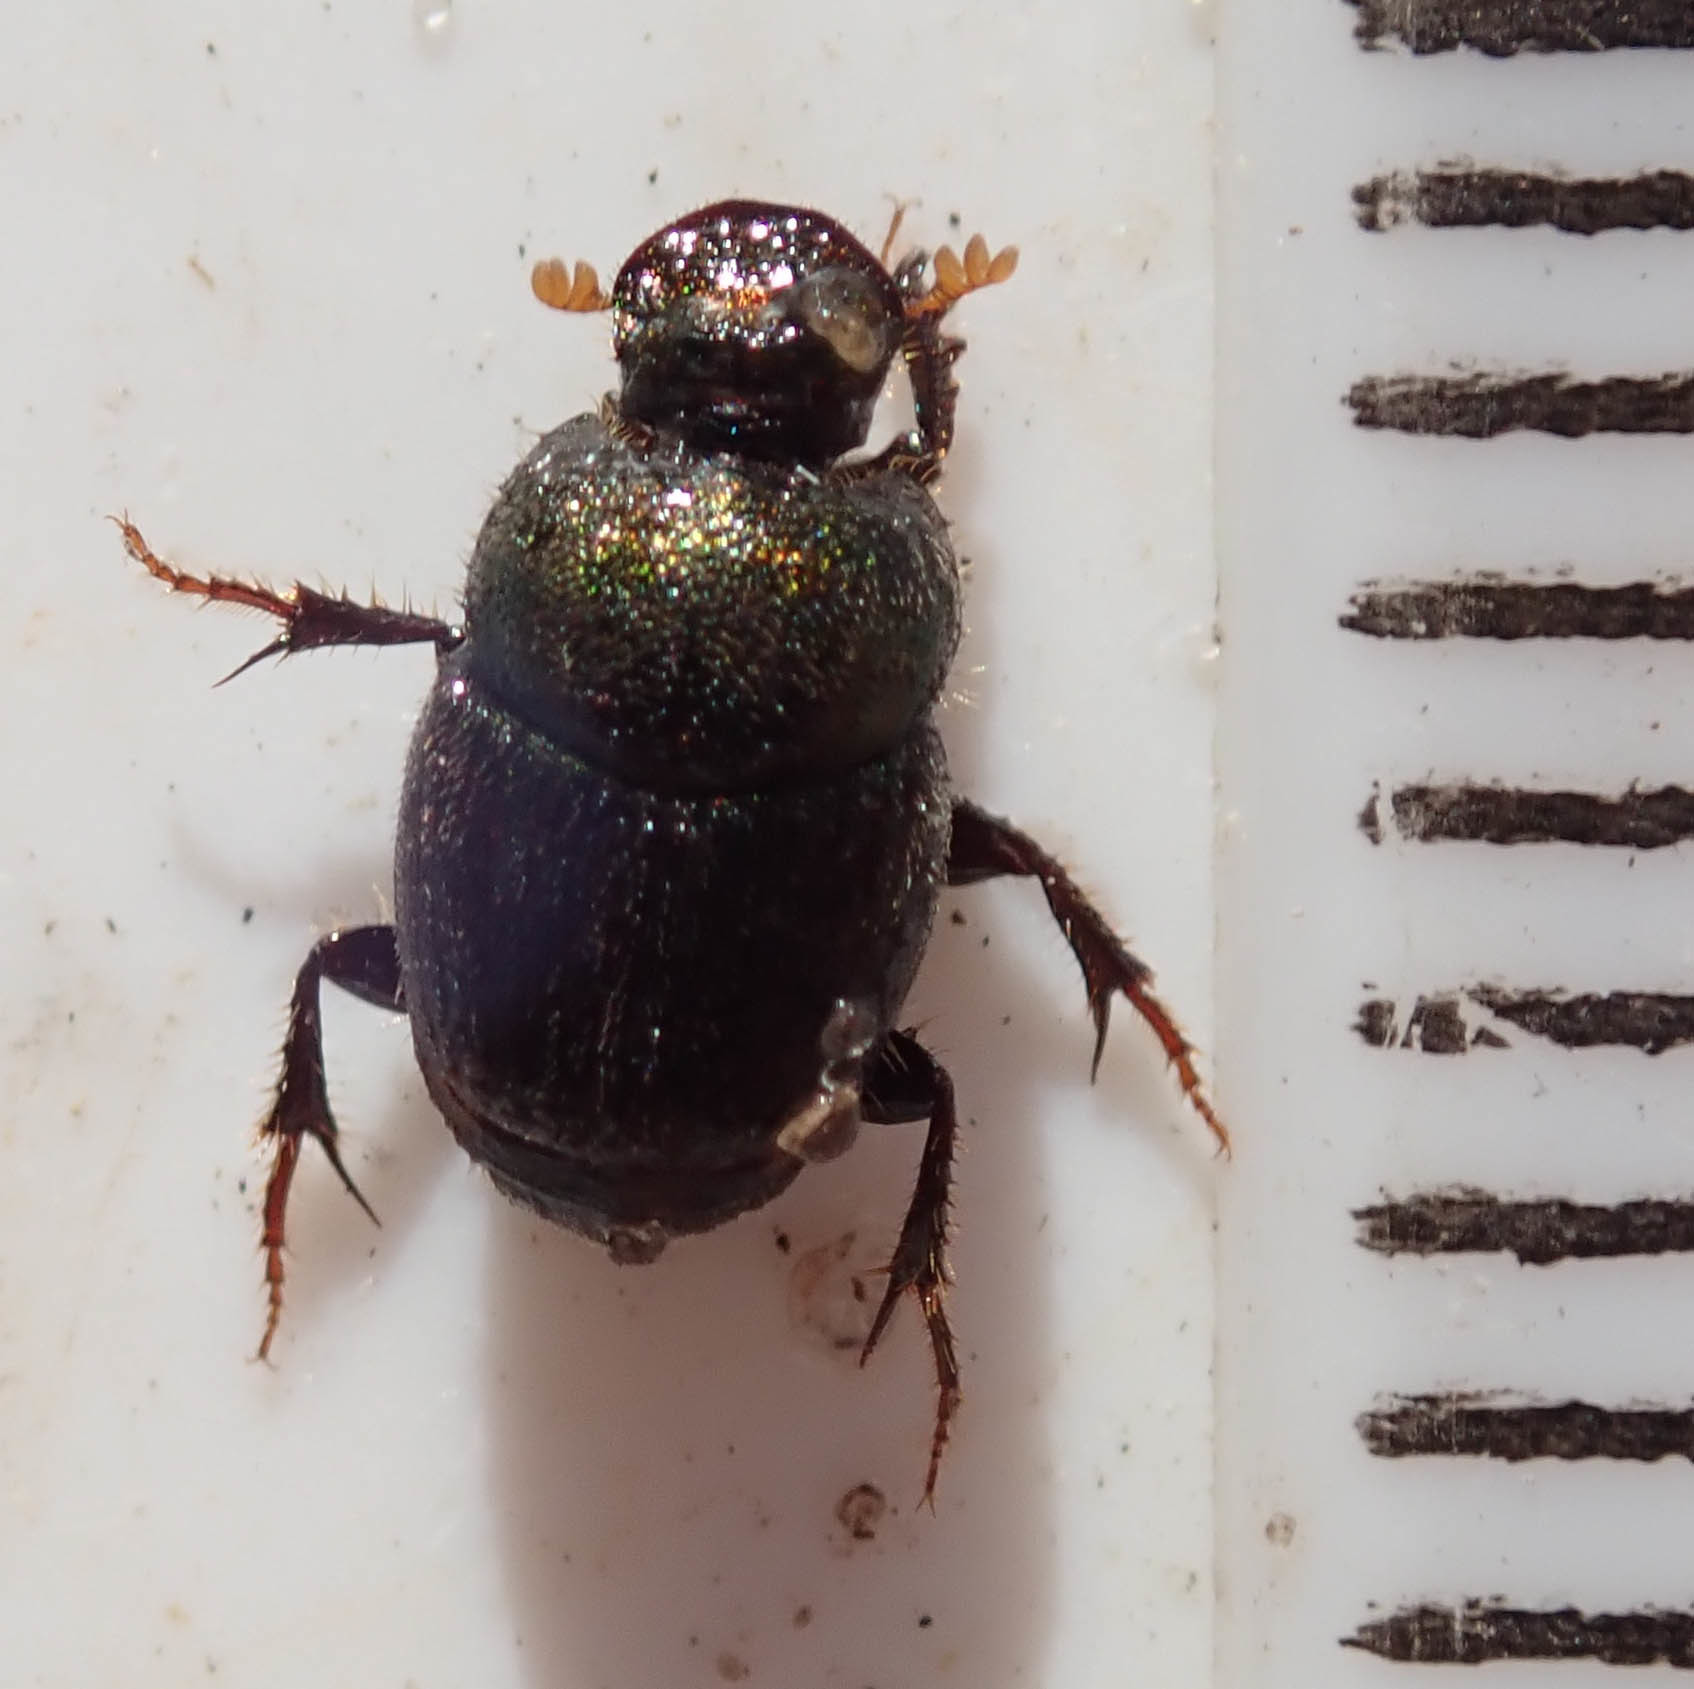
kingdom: Animalia
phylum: Arthropoda
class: Insecta
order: Coleoptera
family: Scarabaeidae
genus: Onthophagus
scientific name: Onthophagus aeruginosus
